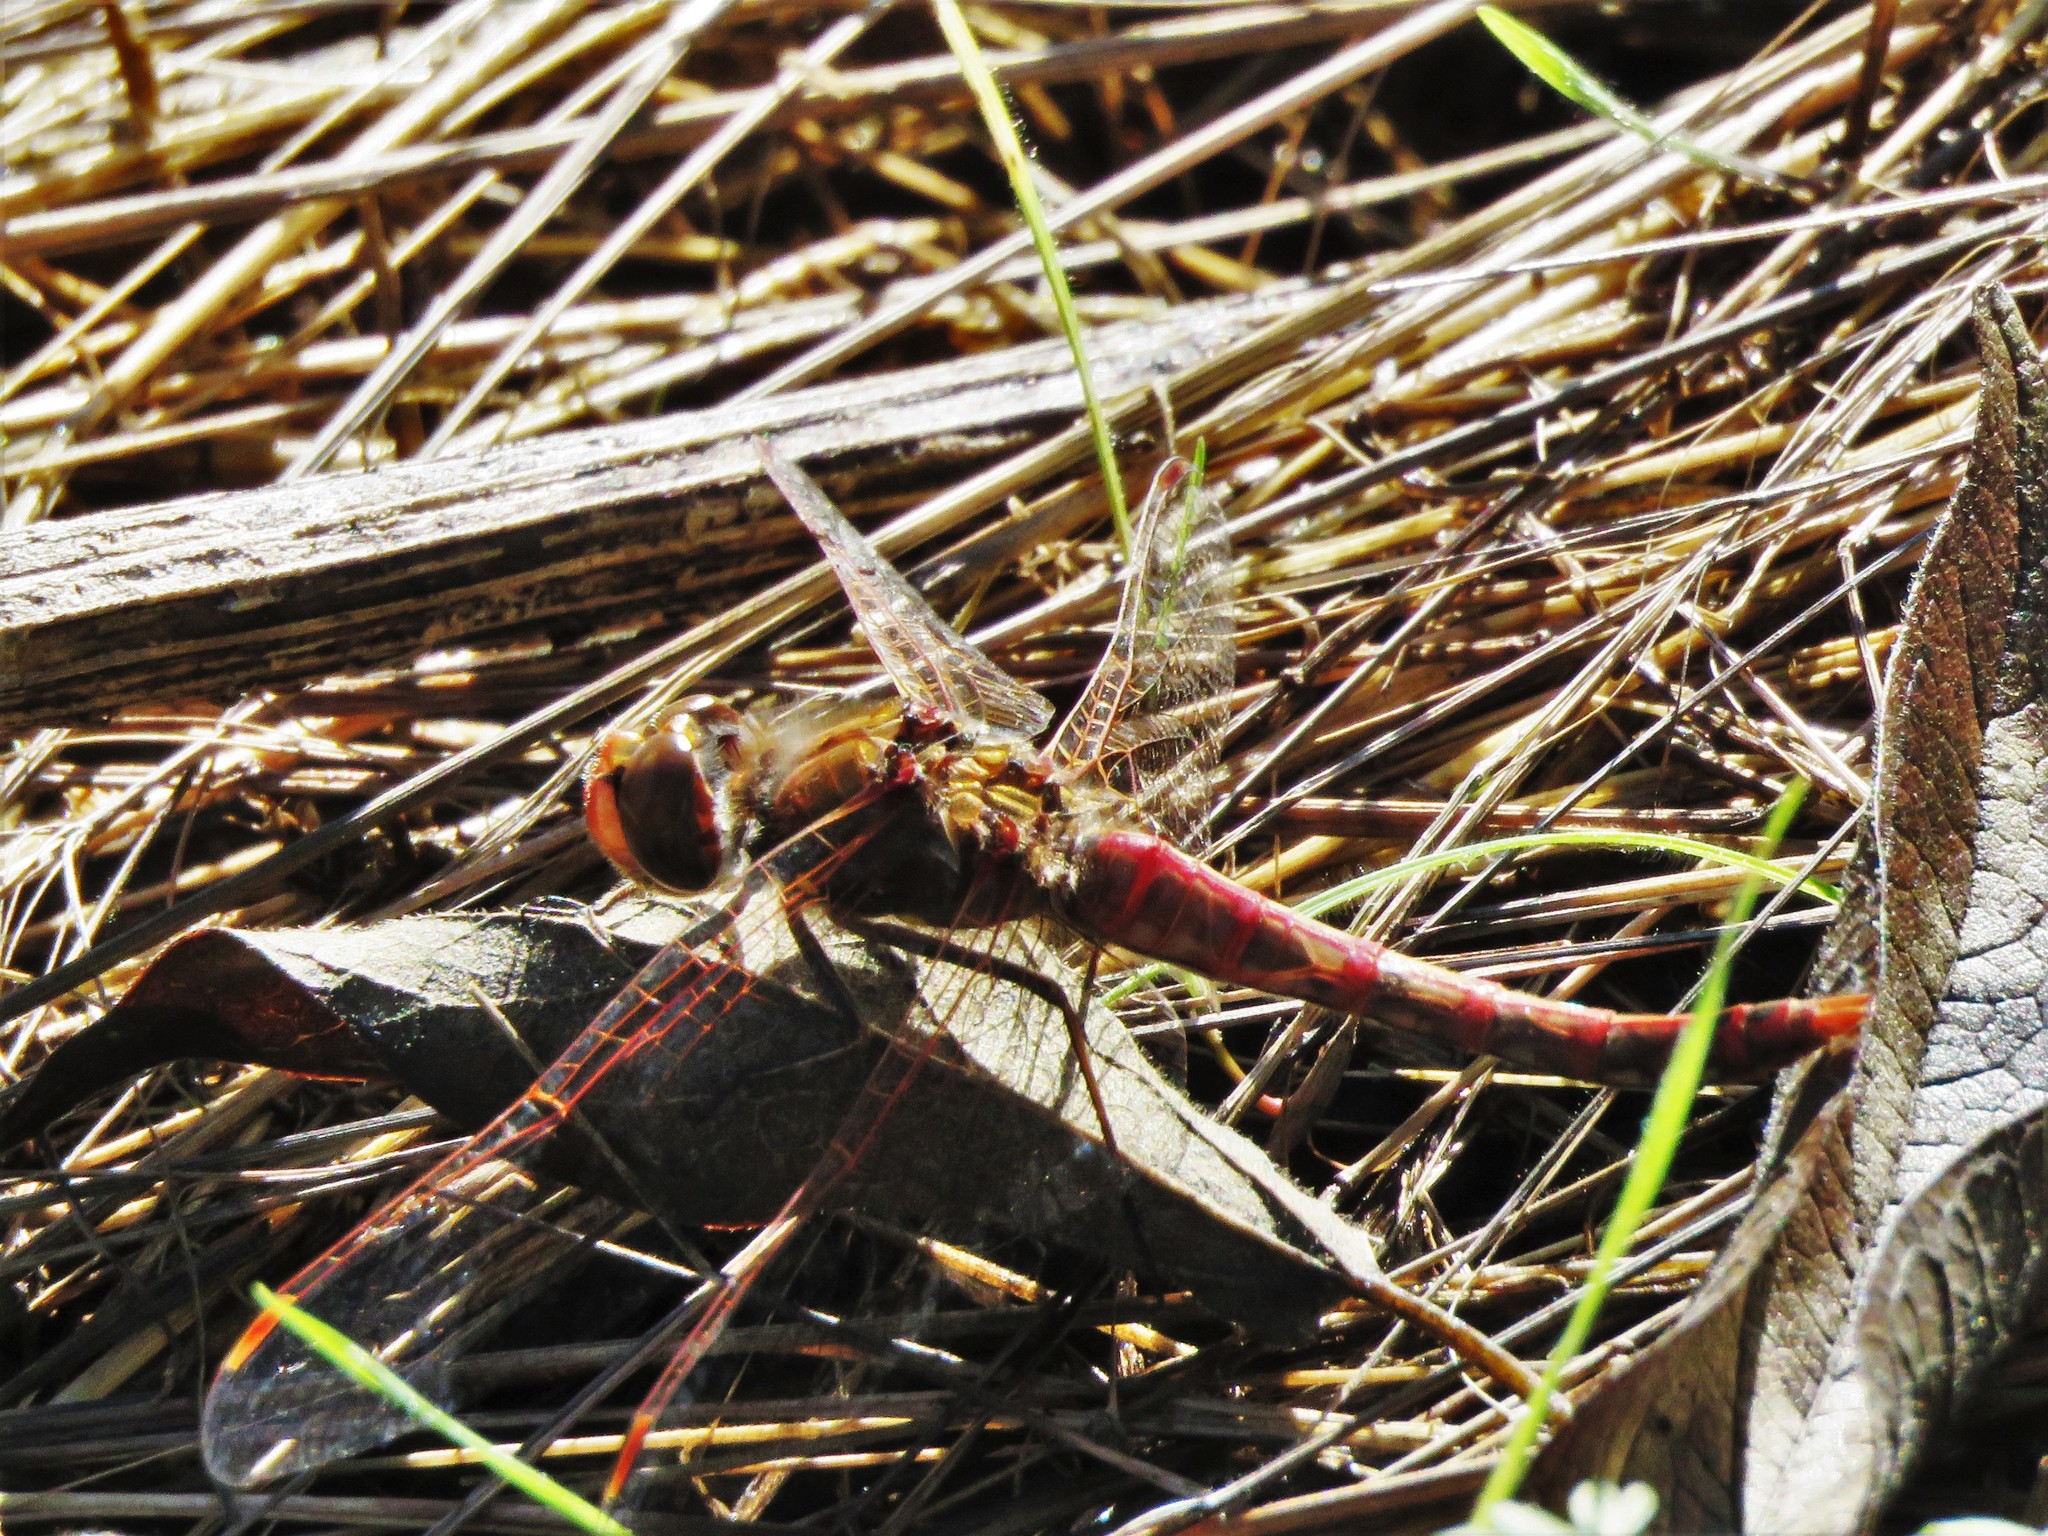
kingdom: Animalia
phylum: Arthropoda
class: Insecta
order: Odonata
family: Libellulidae
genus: Sympetrum
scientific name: Sympetrum corruptum
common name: Variegated meadowhawk
